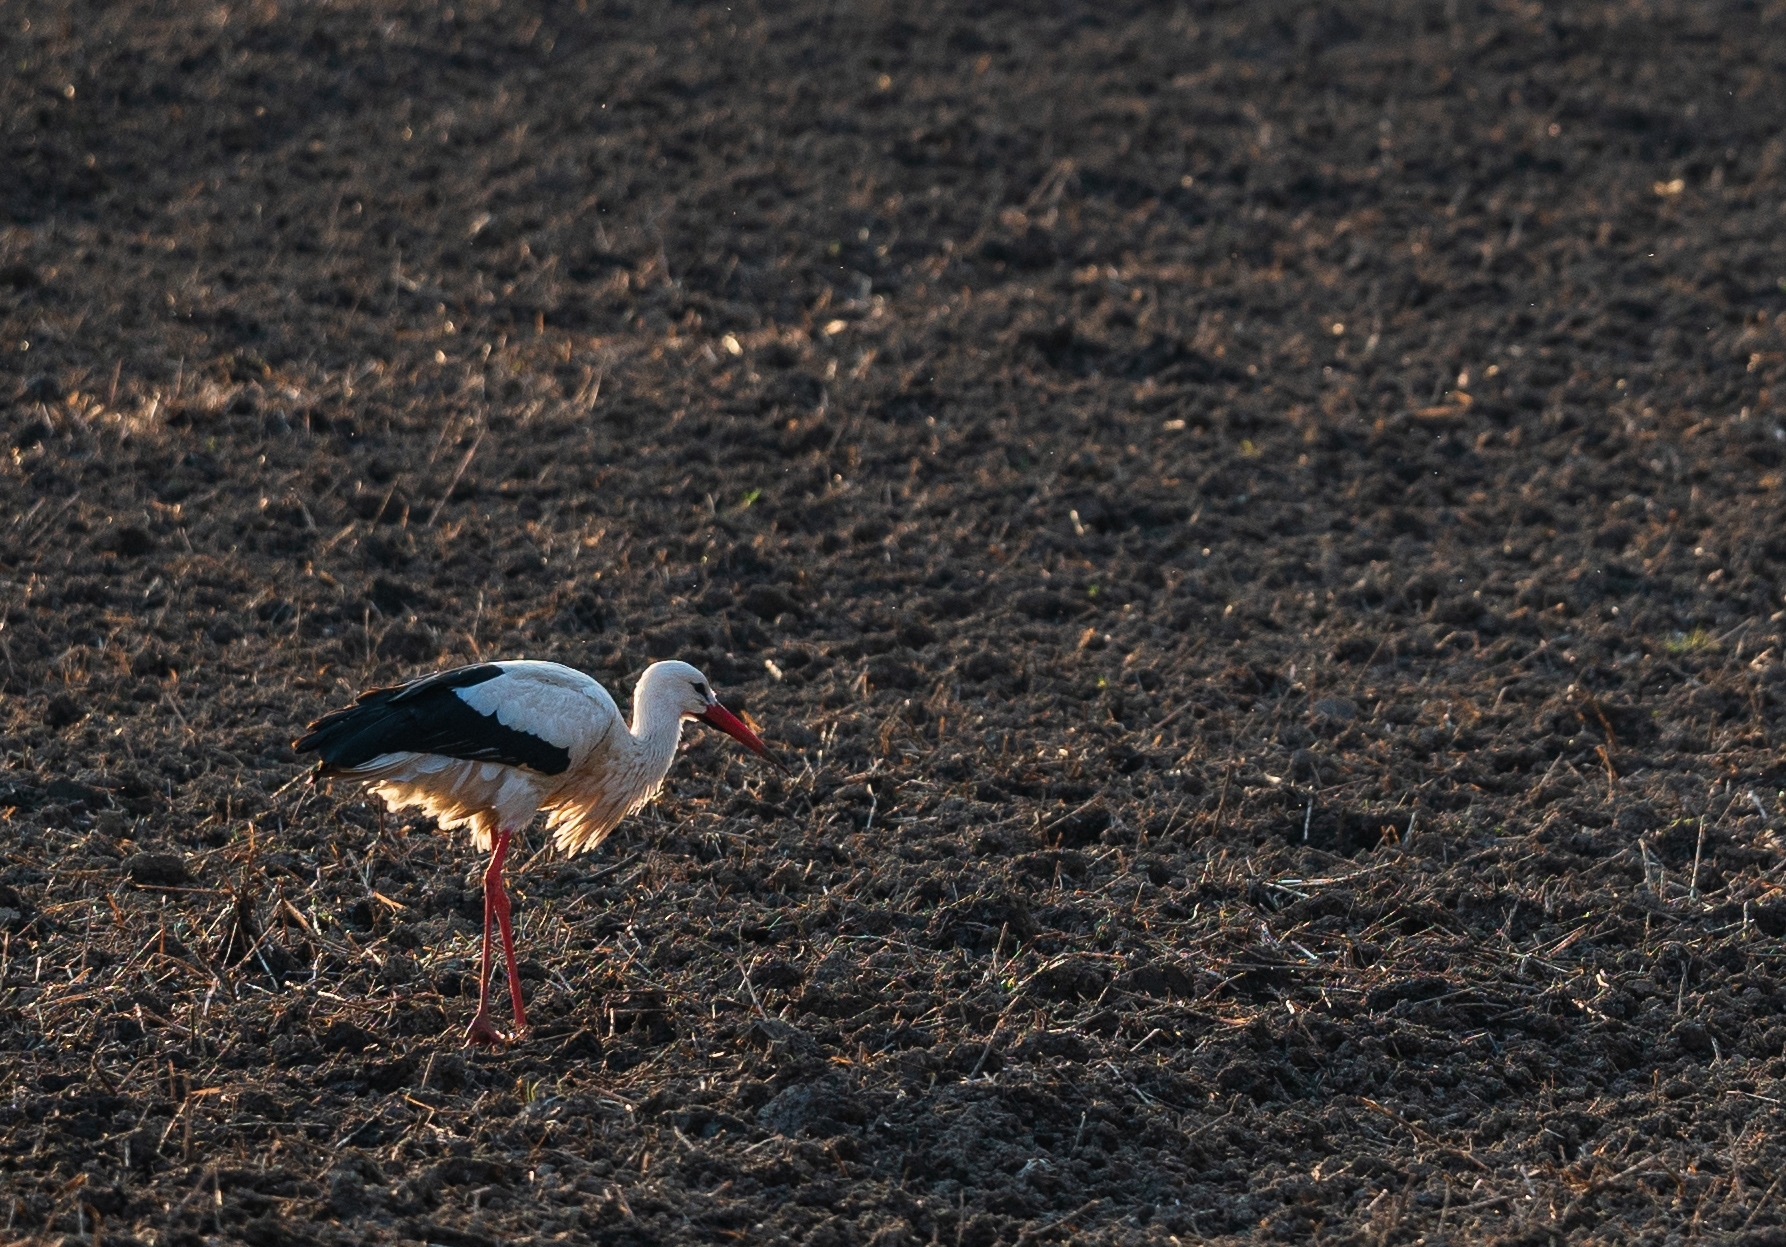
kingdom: Animalia
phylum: Chordata
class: Aves
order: Ciconiiformes
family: Ciconiidae
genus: Ciconia
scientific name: Ciconia ciconia
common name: White stork
